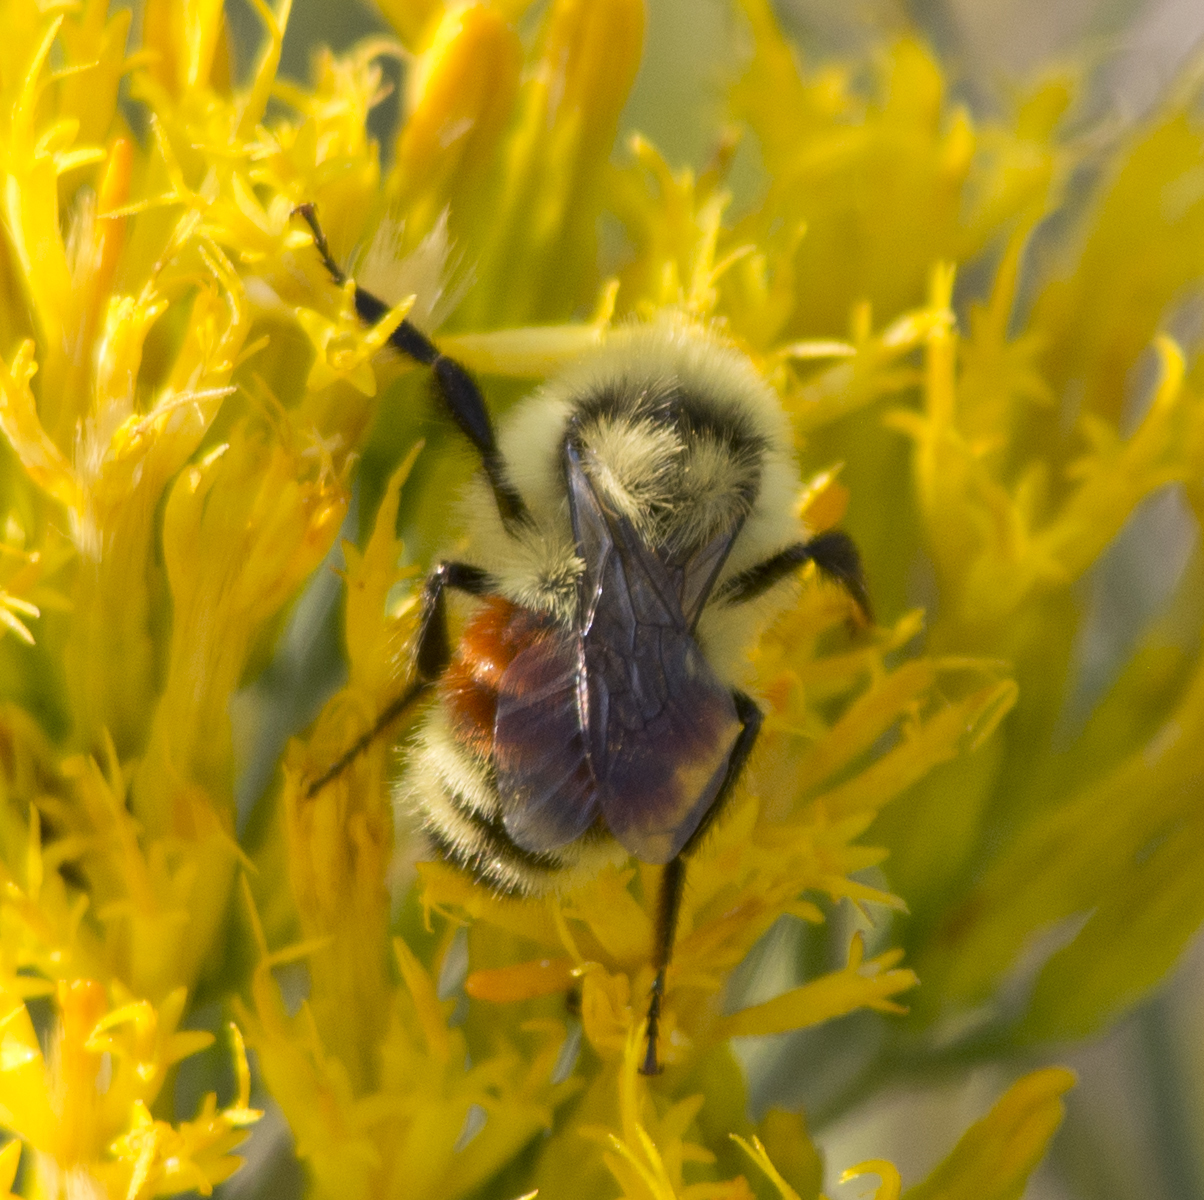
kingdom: Animalia
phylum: Arthropoda
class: Insecta
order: Hymenoptera
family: Apidae
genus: Bombus
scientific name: Bombus huntii
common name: Hunt bumble bee
